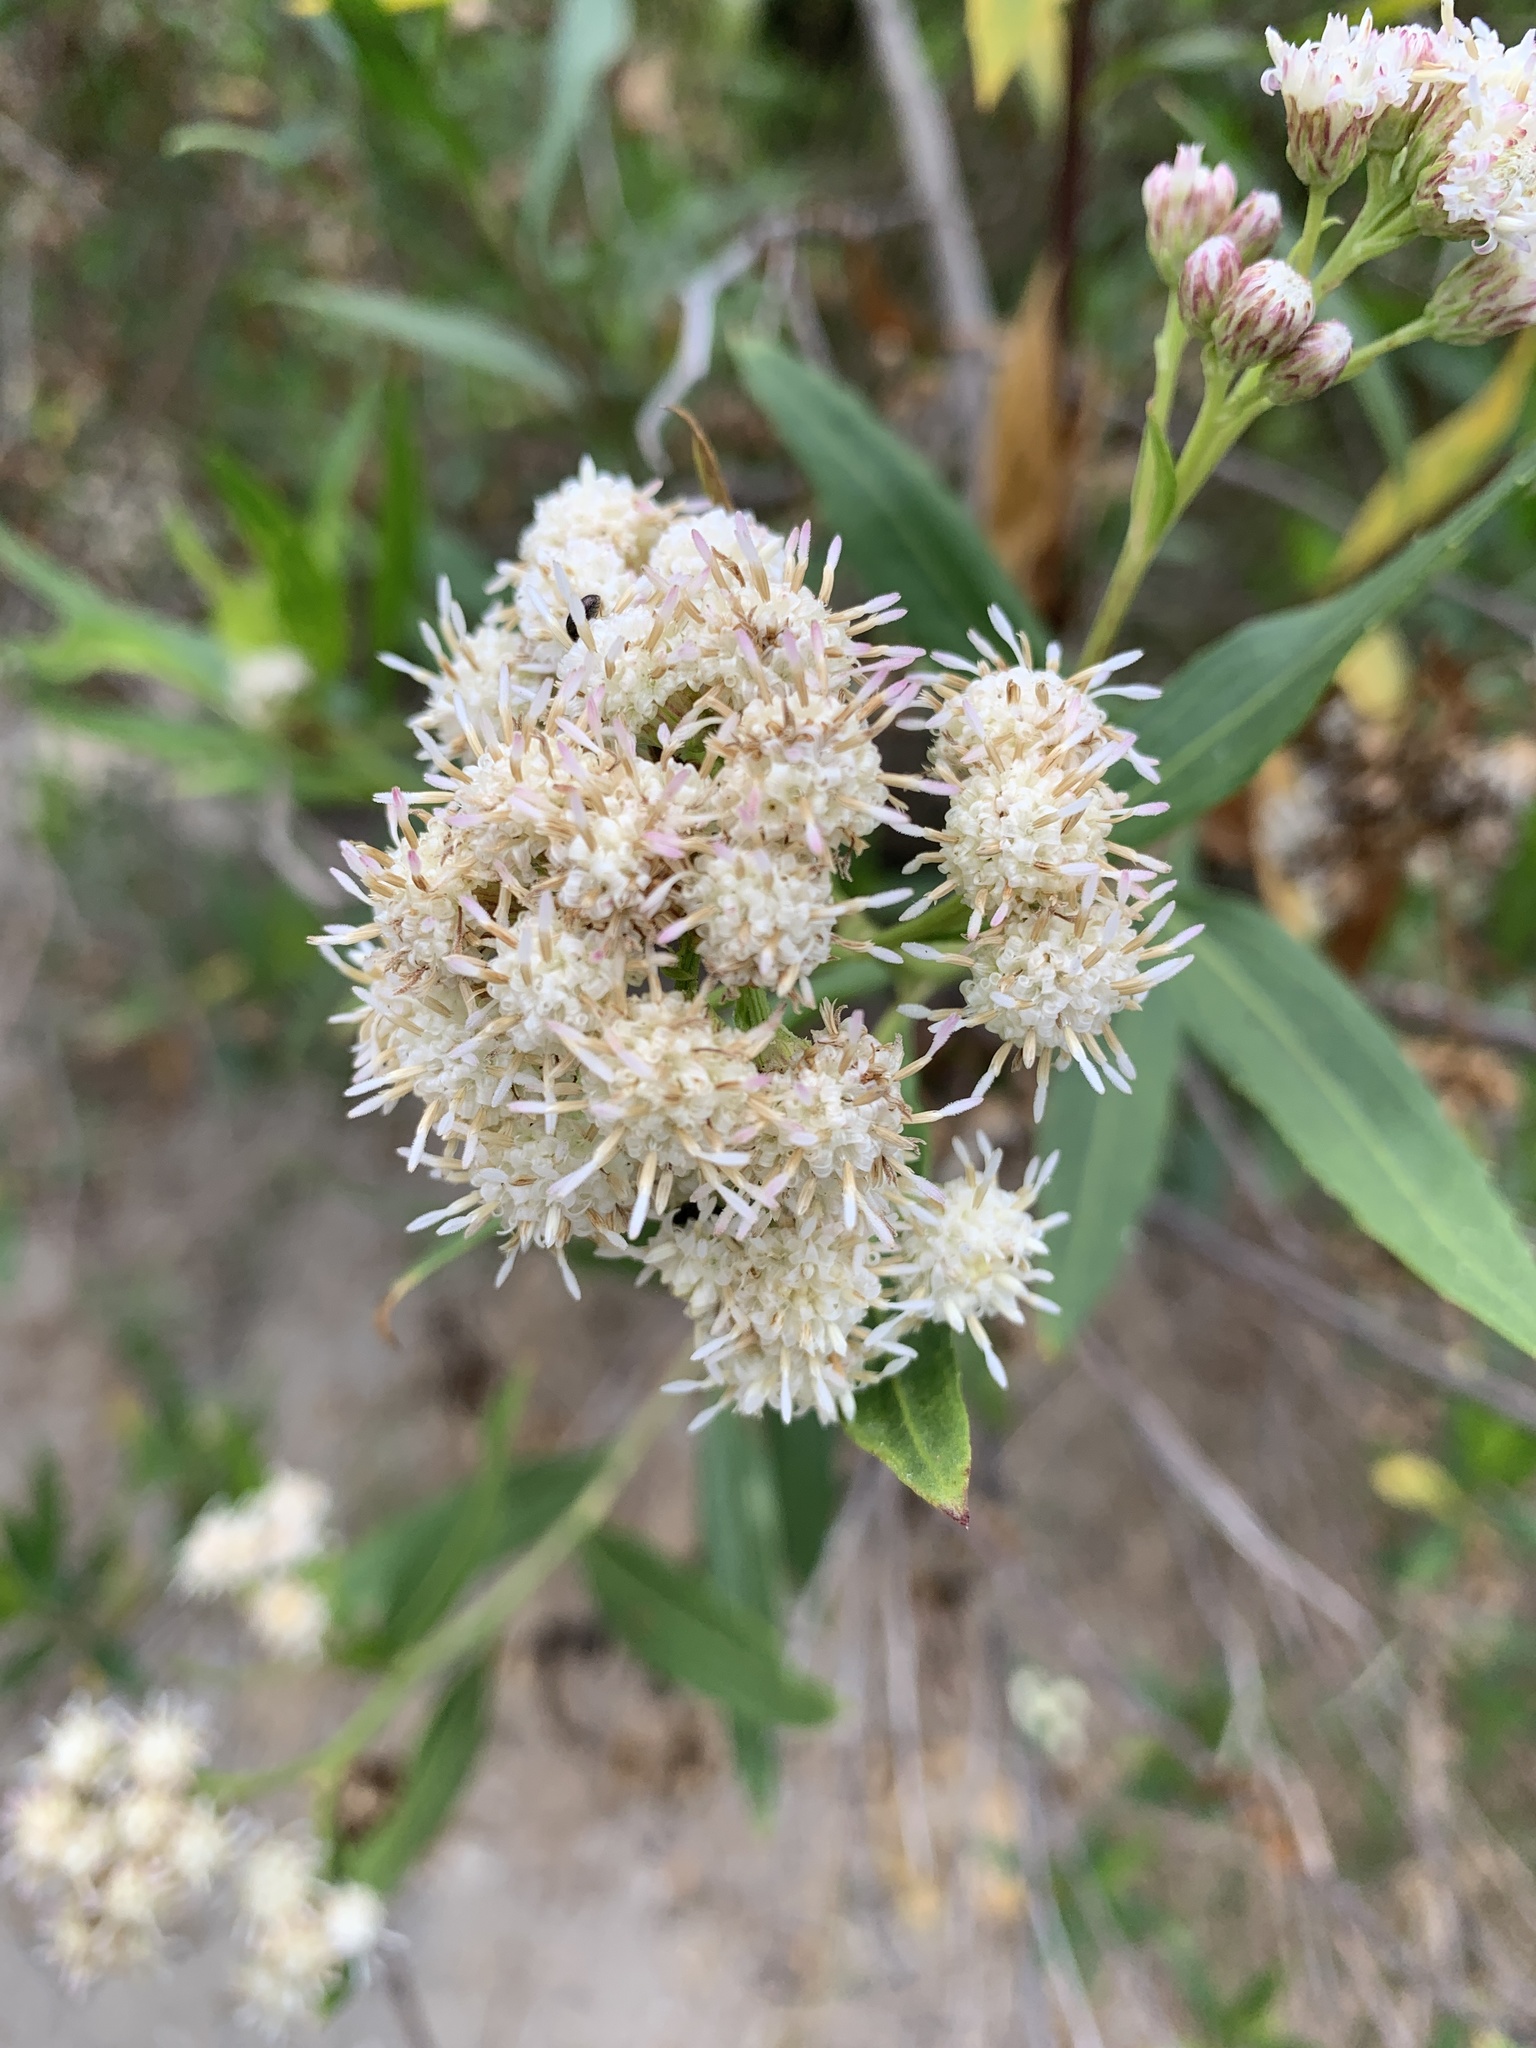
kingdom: Plantae
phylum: Tracheophyta
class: Magnoliopsida
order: Asterales
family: Asteraceae
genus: Baccharis
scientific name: Baccharis salicifolia
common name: Sticky baccharis
